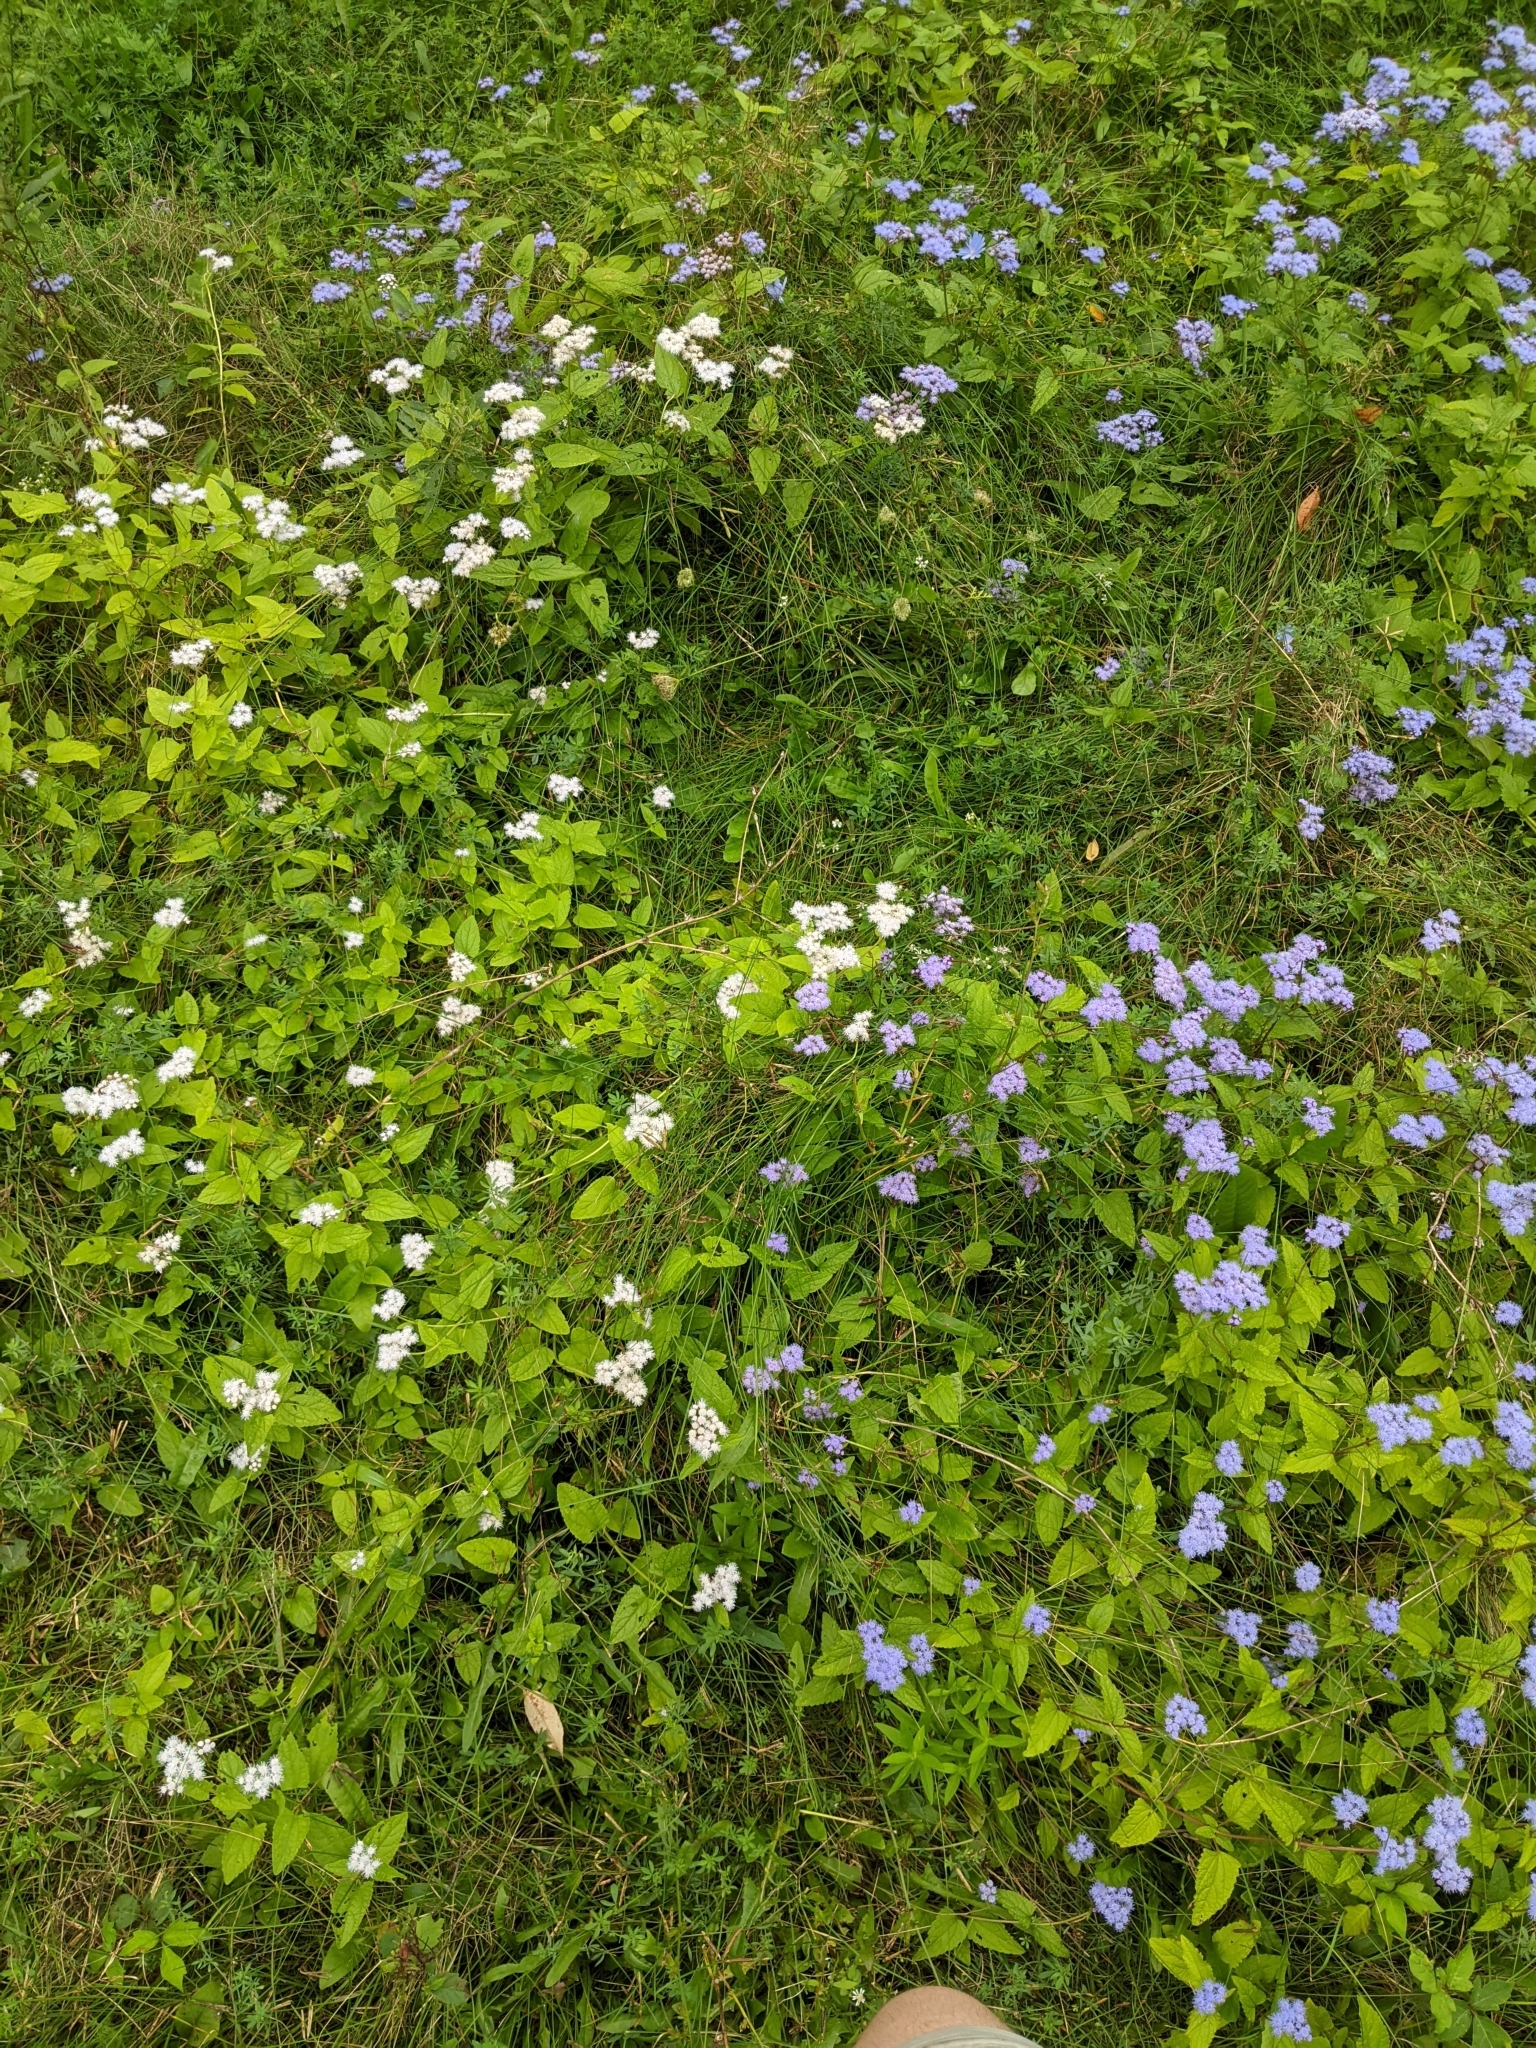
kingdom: Plantae
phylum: Tracheophyta
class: Magnoliopsida
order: Asterales
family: Asteraceae
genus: Conoclinium
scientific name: Conoclinium coelestinum
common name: Blue mistflower
